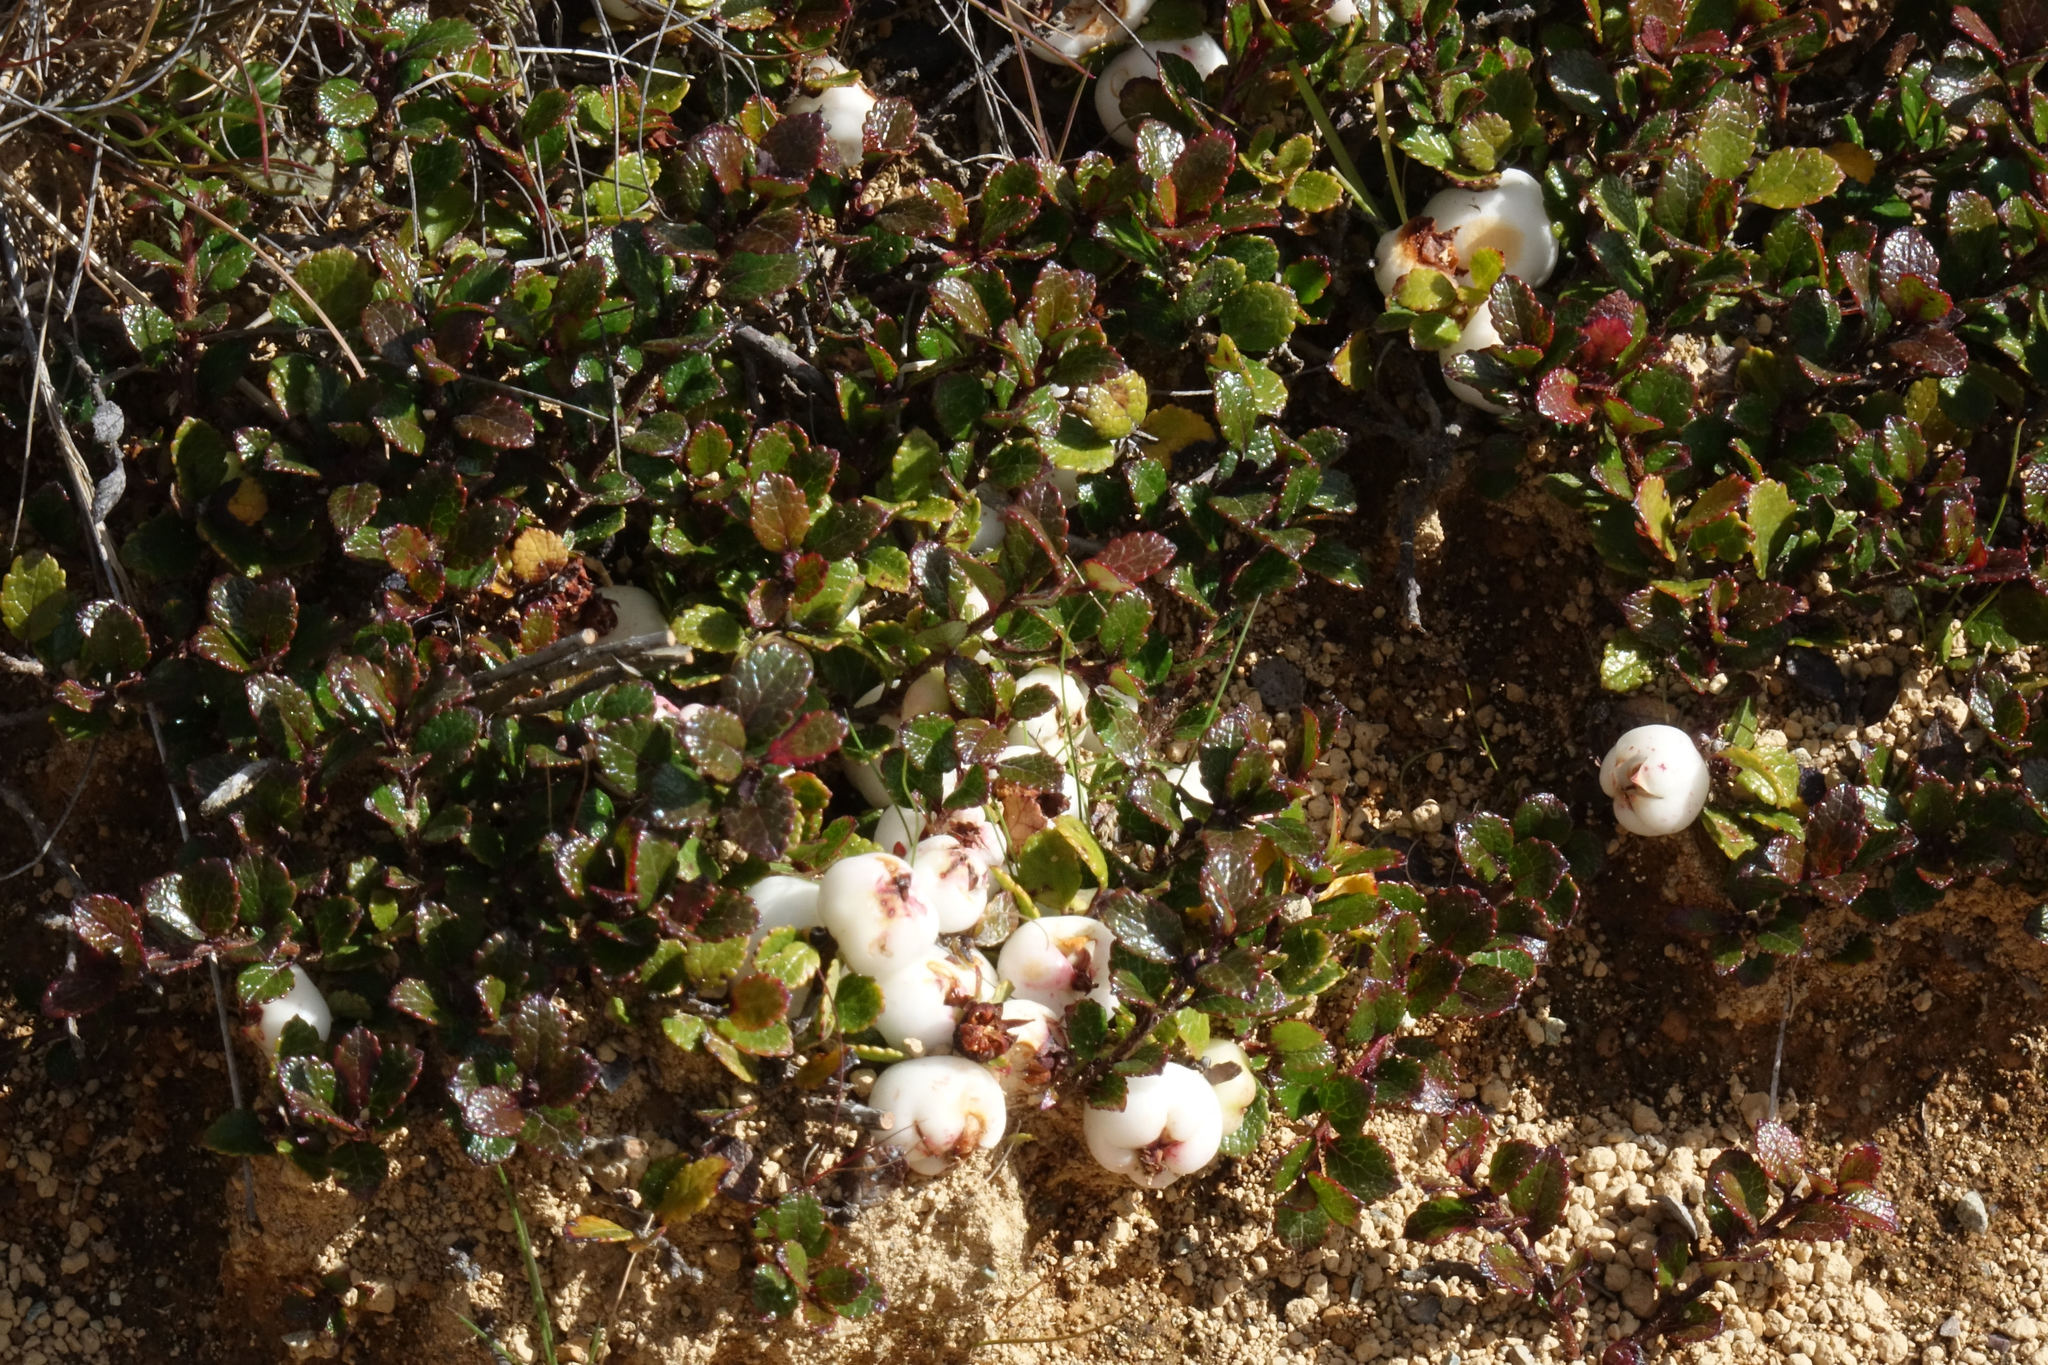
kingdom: Plantae
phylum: Tracheophyta
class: Magnoliopsida
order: Ericales
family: Ericaceae
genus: Gaultheria
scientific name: Gaultheria depressa
